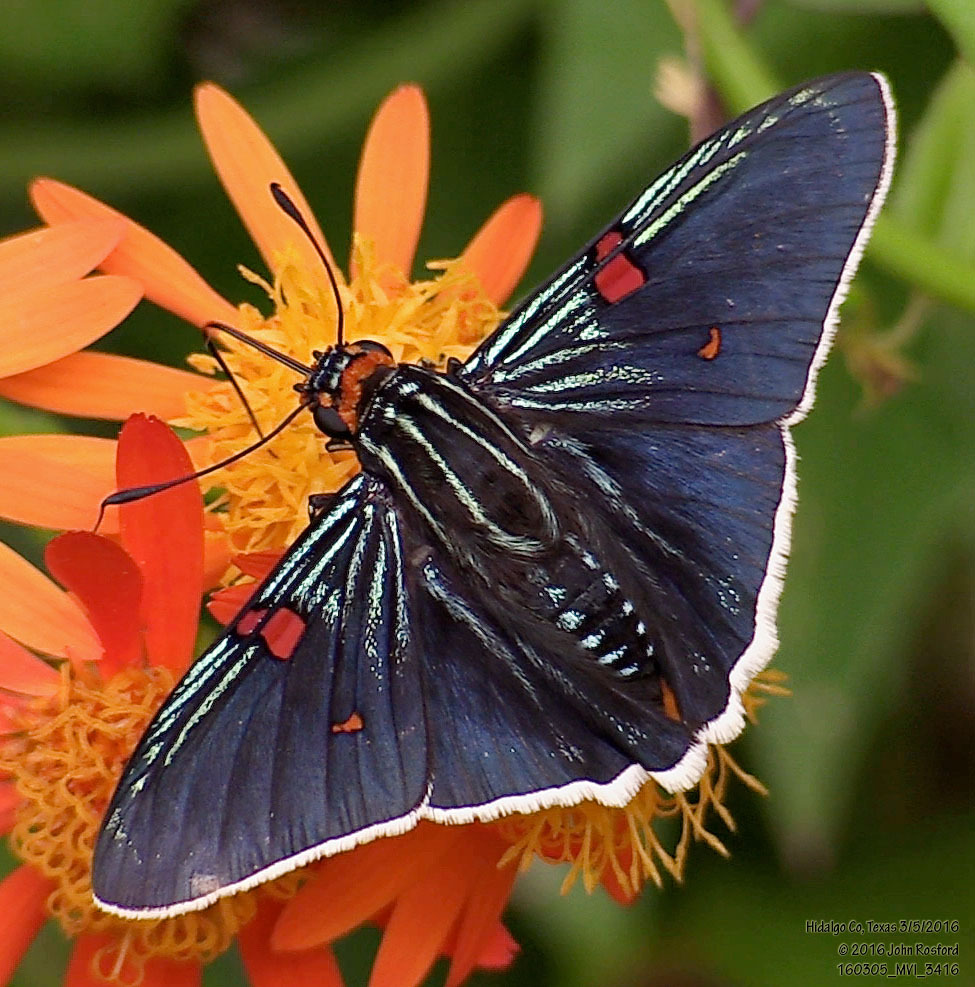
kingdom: Animalia
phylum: Arthropoda
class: Insecta
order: Lepidoptera
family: Hesperiidae
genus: Phocides
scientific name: Phocides lilea
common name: Guava skipper
